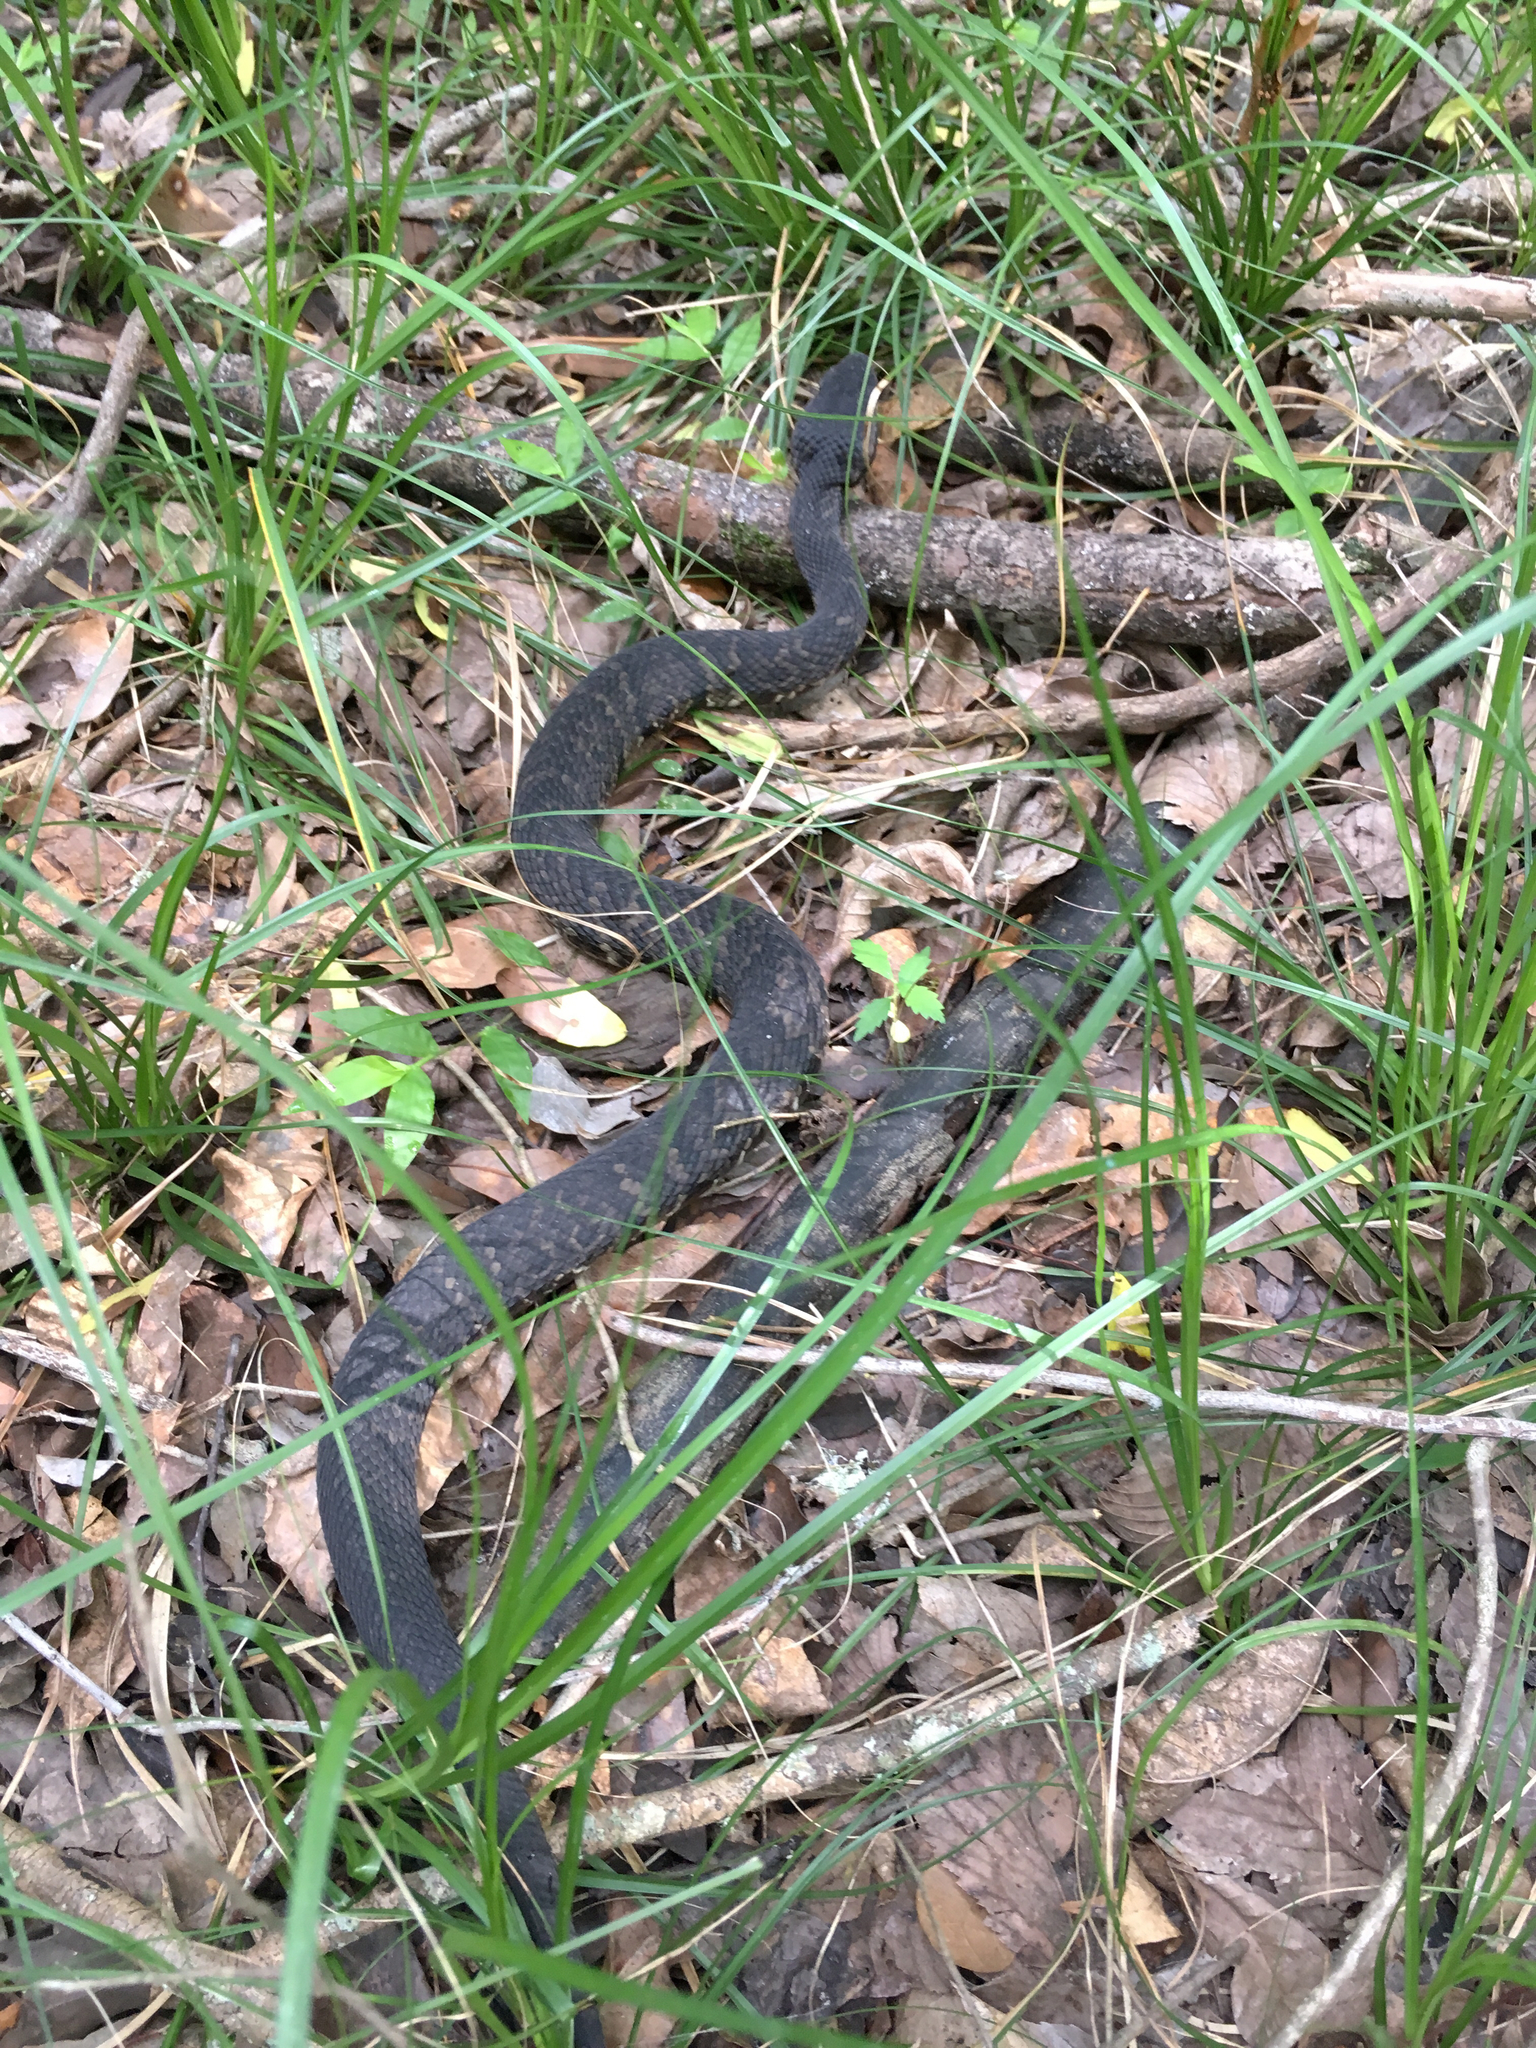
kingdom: Animalia
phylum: Chordata
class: Squamata
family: Viperidae
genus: Agkistrodon
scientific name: Agkistrodon piscivorus
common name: Cottonmouth
